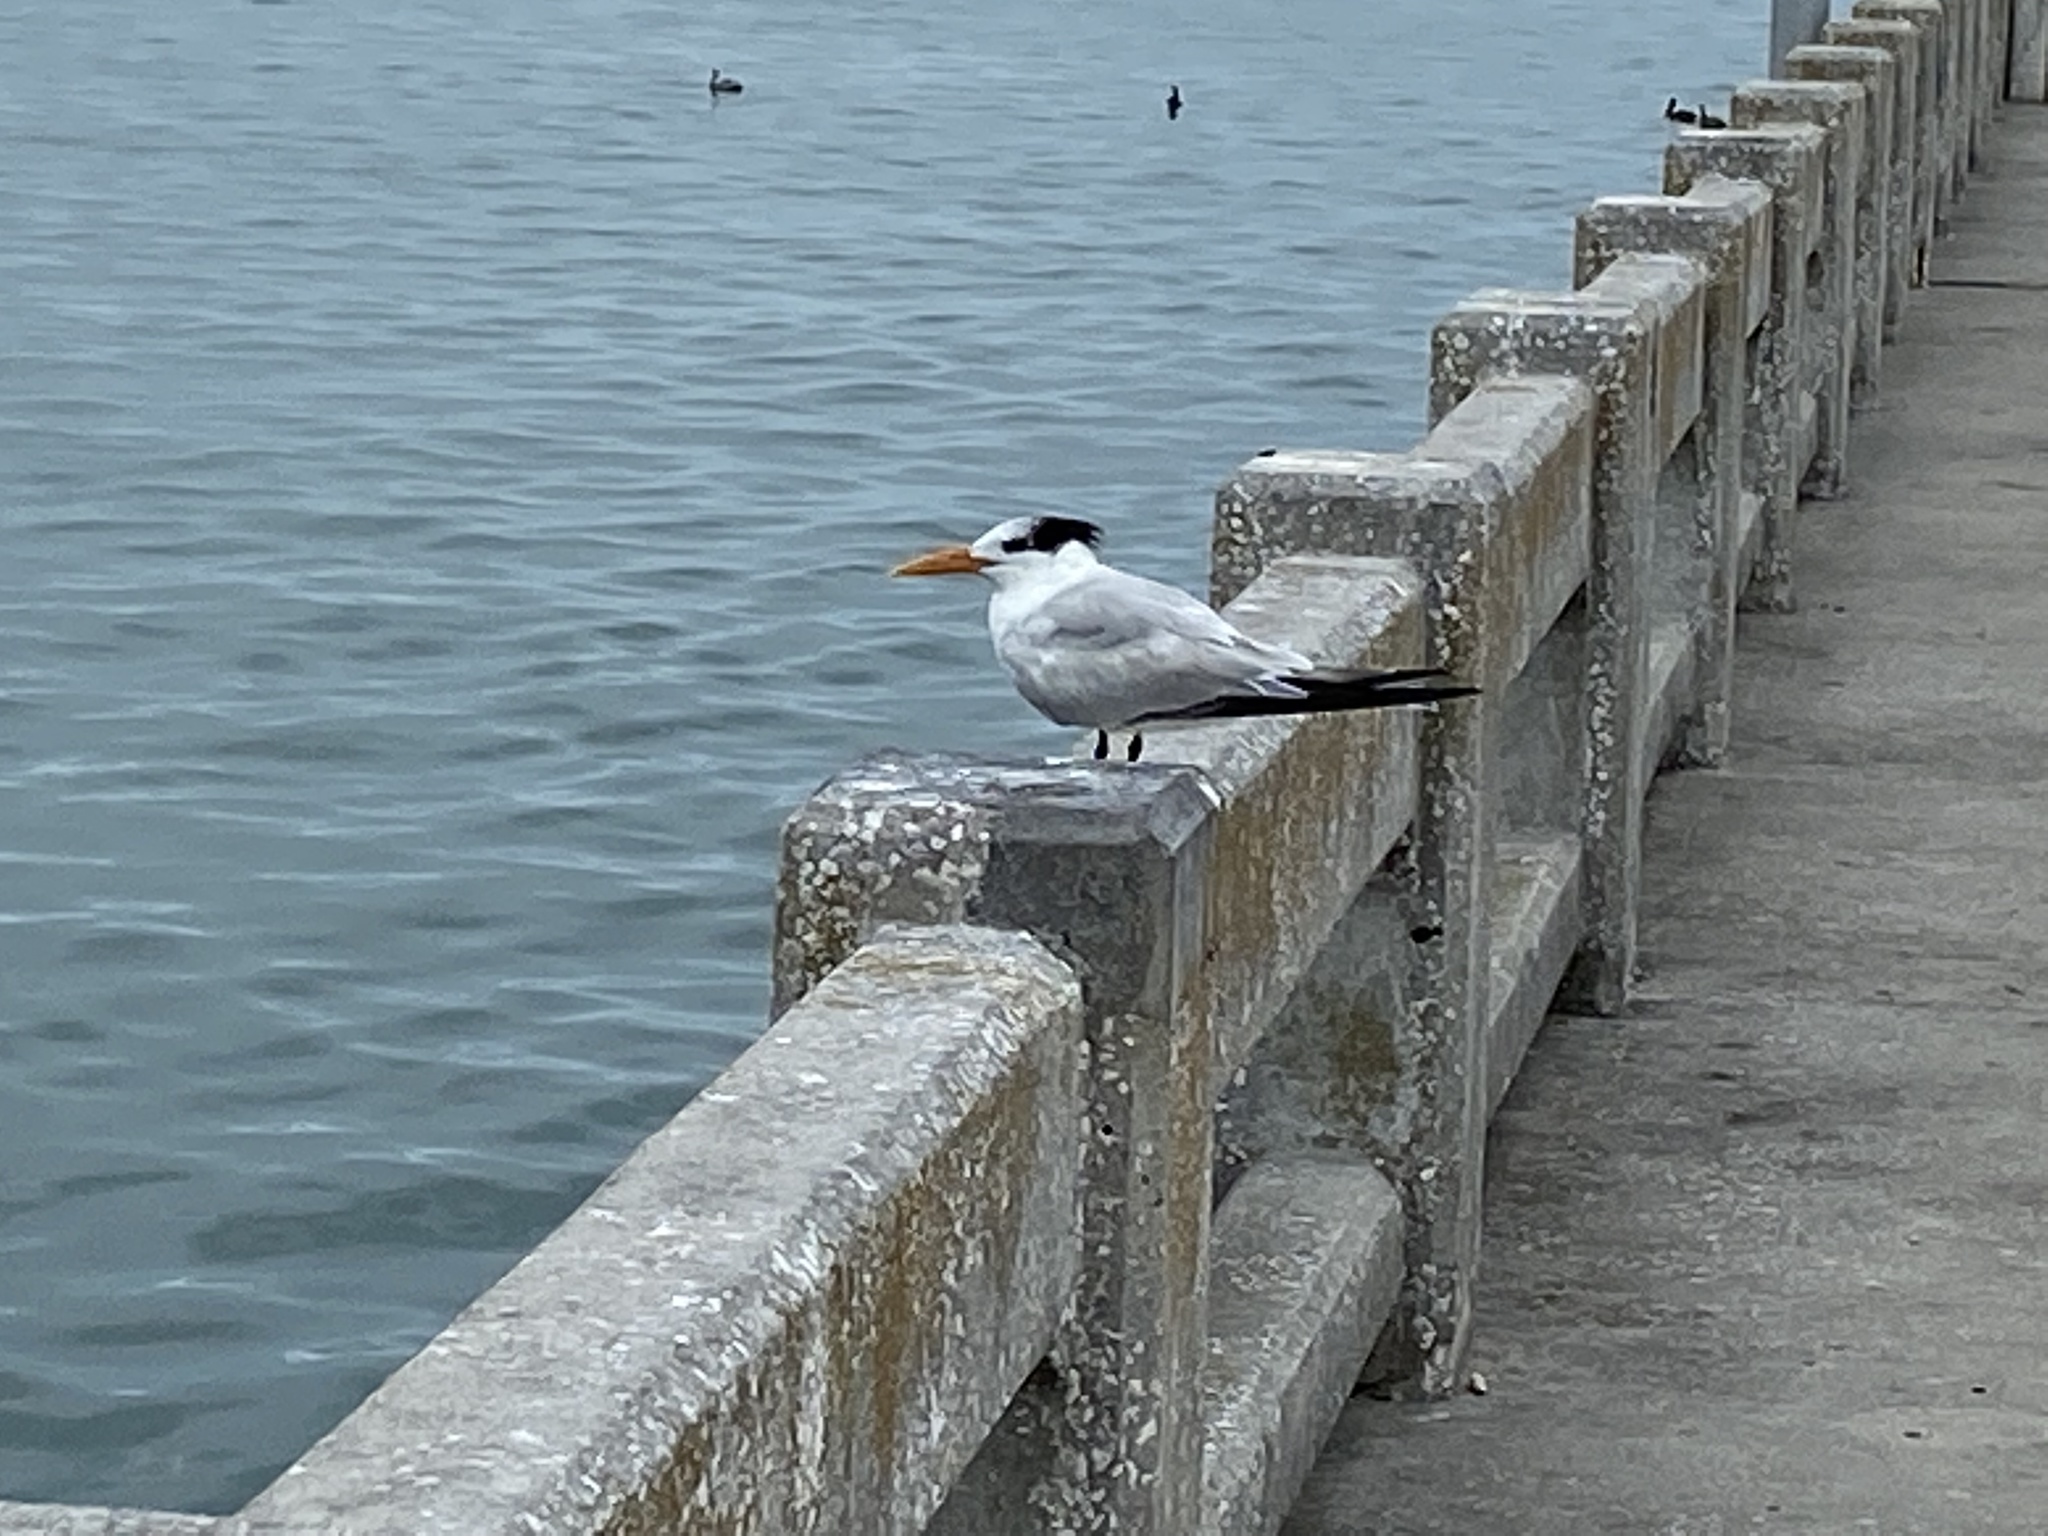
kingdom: Animalia
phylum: Chordata
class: Aves
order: Charadriiformes
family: Laridae
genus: Thalasseus
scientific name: Thalasseus maximus
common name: Royal tern
